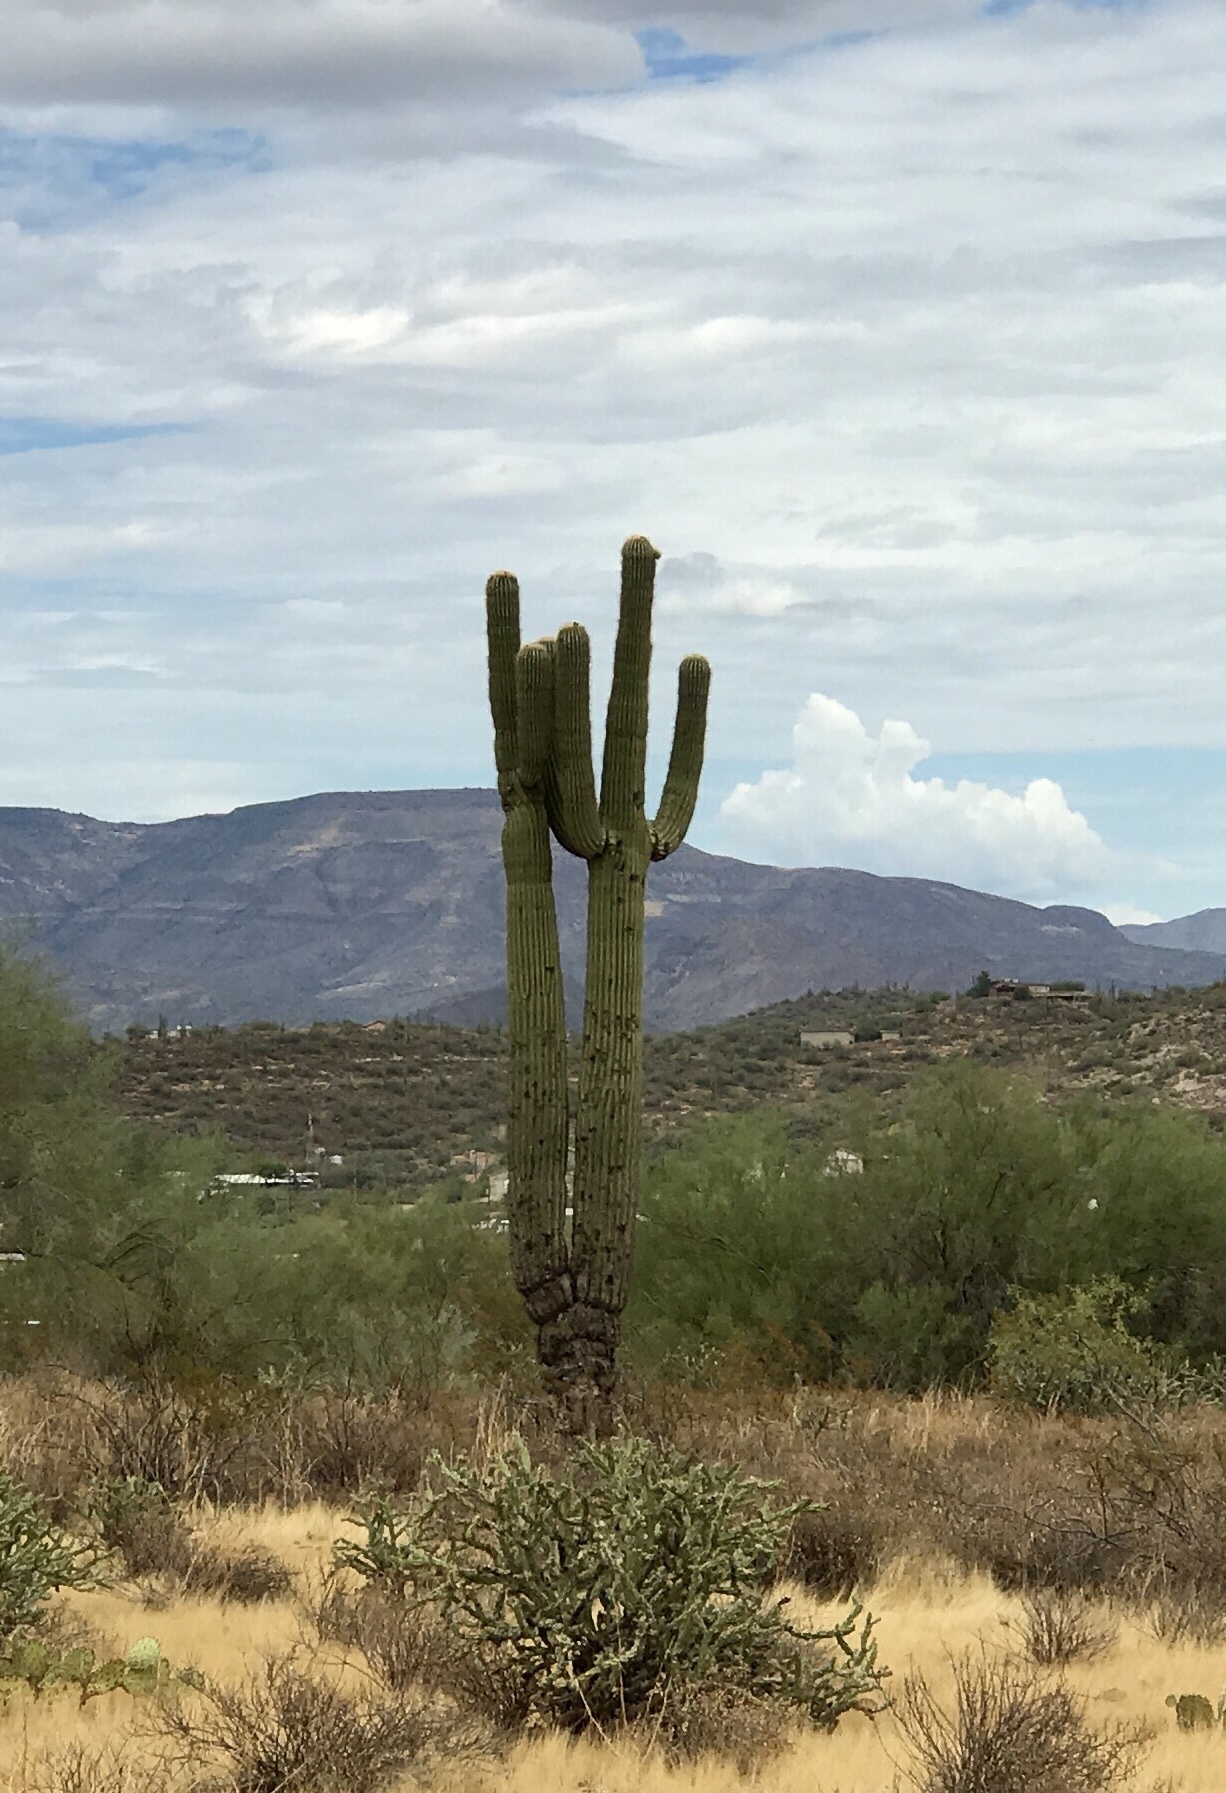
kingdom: Plantae
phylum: Tracheophyta
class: Magnoliopsida
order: Caryophyllales
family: Cactaceae
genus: Carnegiea
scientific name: Carnegiea gigantea
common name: Saguaro
